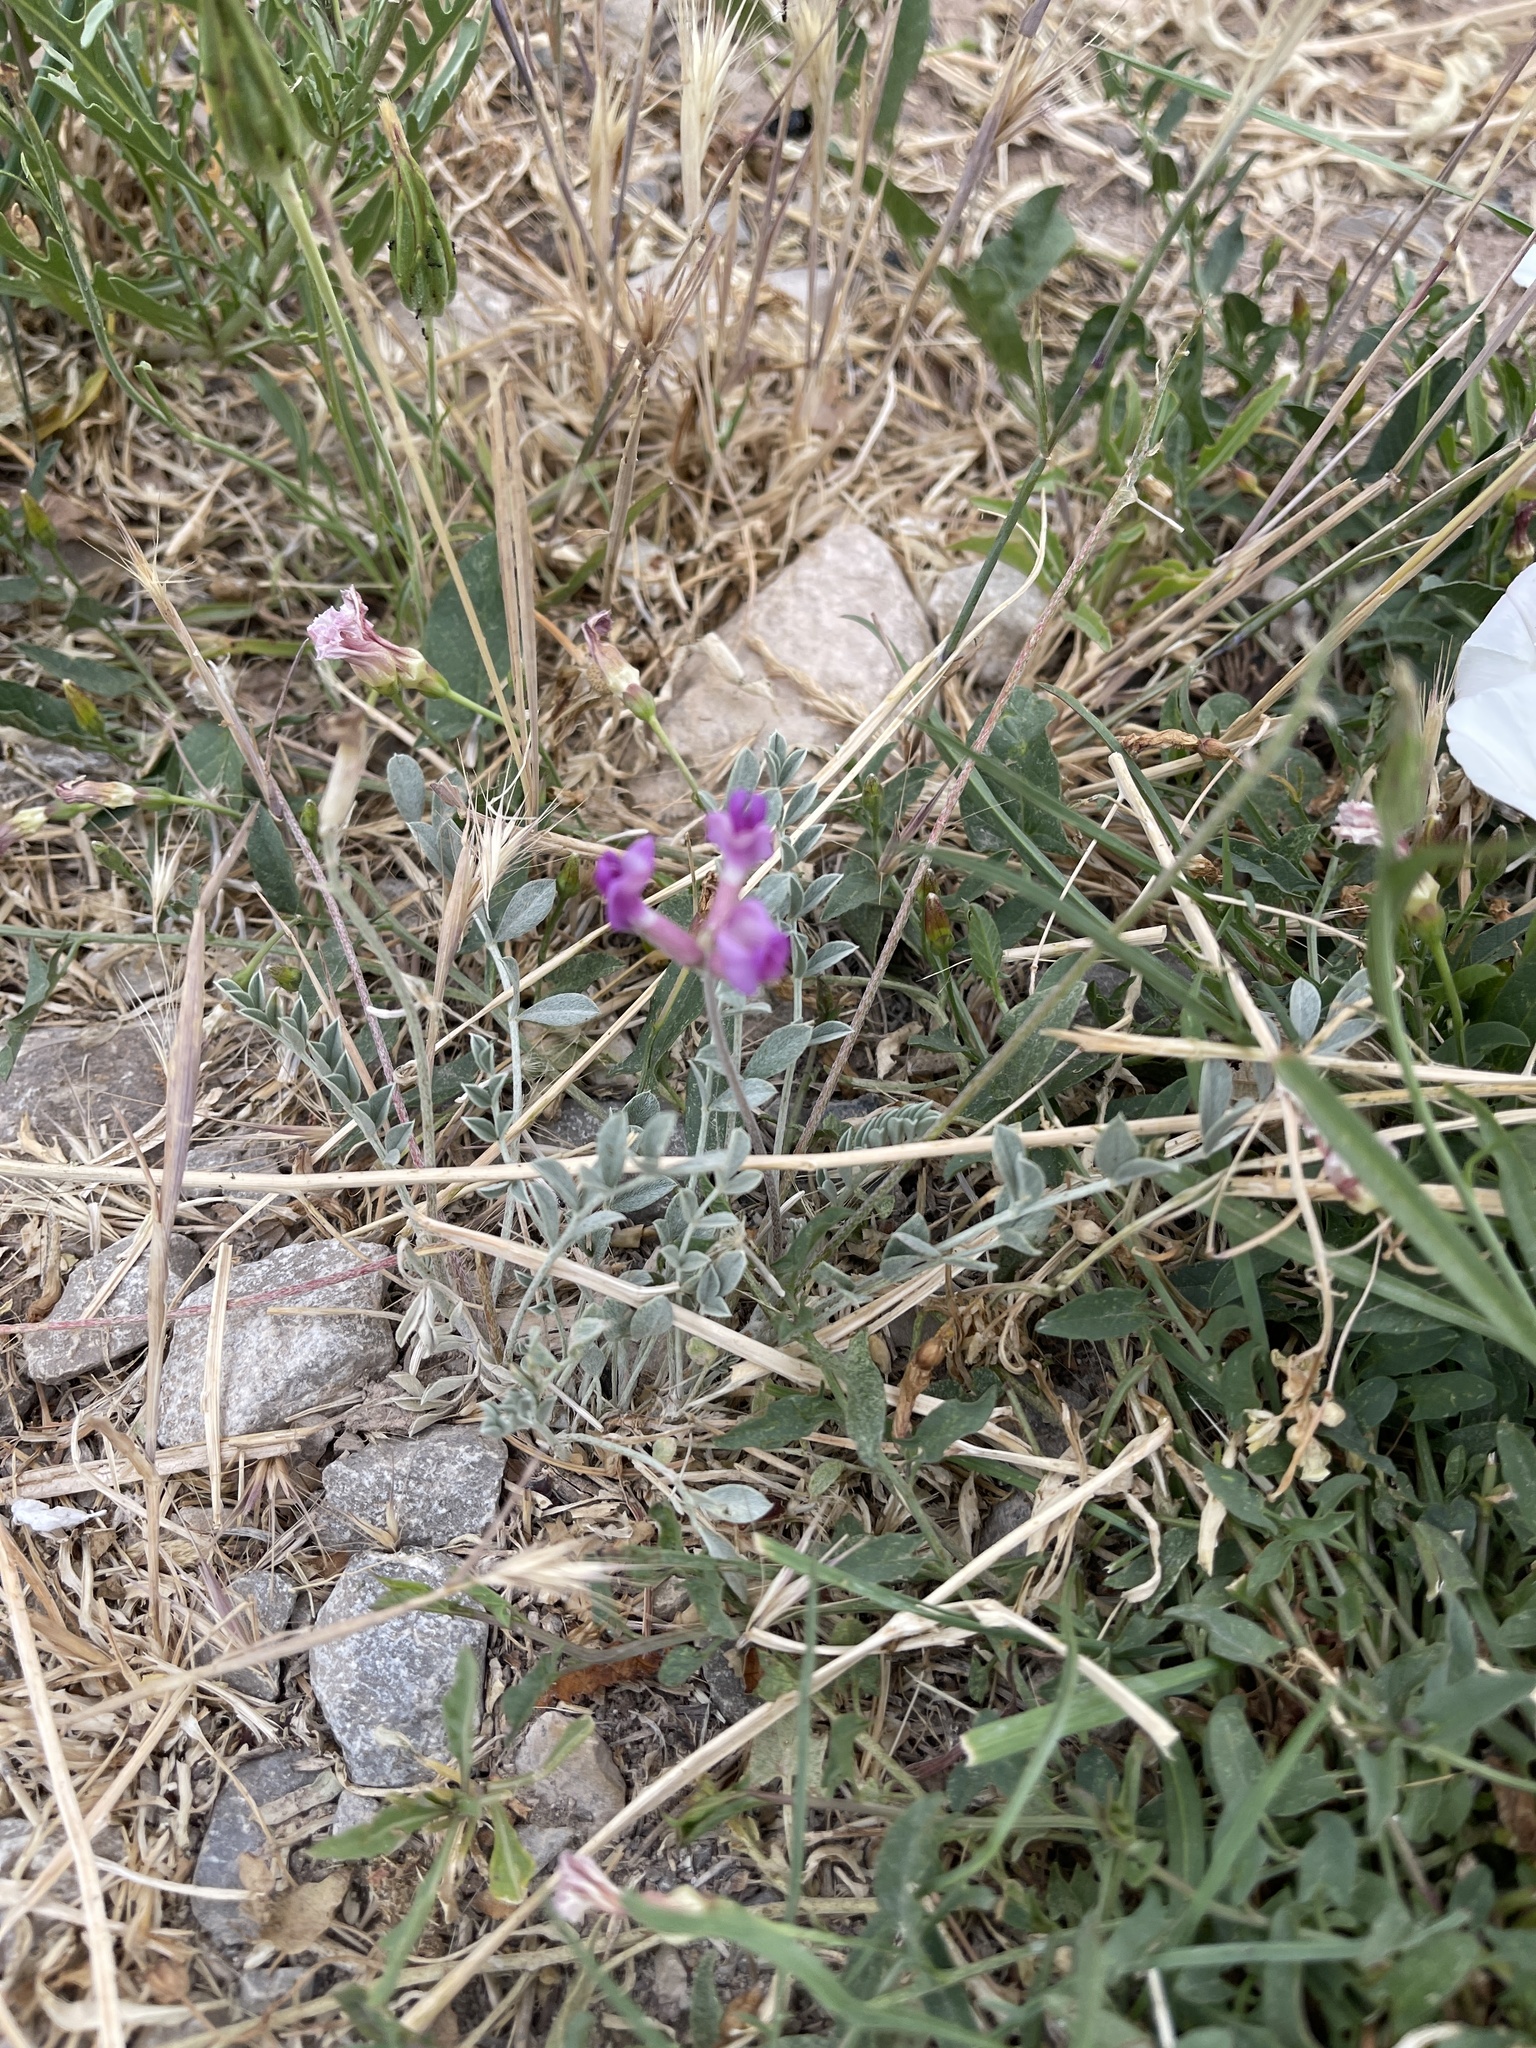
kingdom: Plantae
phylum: Tracheophyta
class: Magnoliopsida
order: Fabales
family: Fabaceae
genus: Oxytropis
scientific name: Oxytropis lambertii
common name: Purple locoweed
